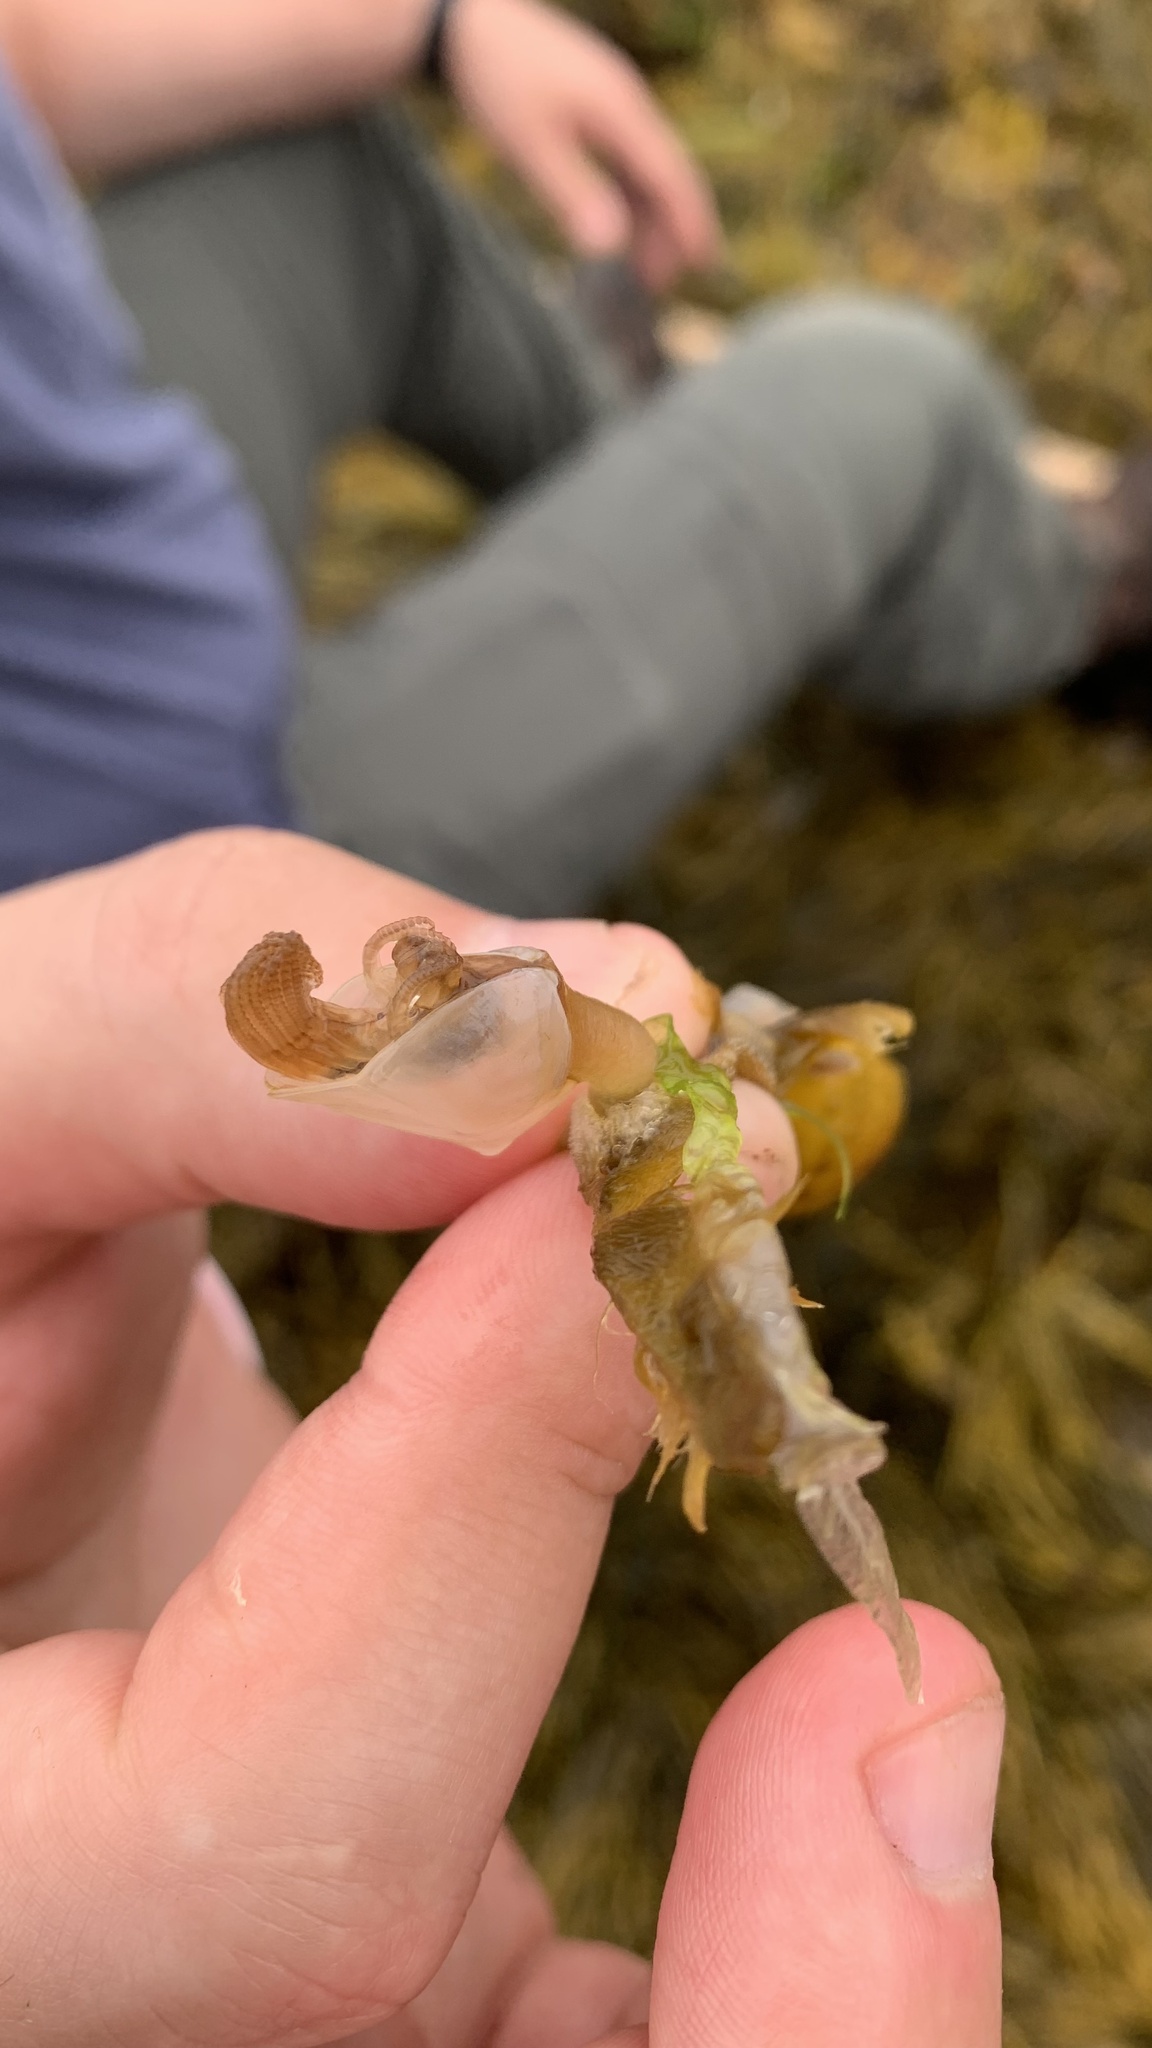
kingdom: Animalia
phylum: Arthropoda
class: Maxillopoda
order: Pedunculata
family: Lepadidae
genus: Dosima
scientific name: Dosima fascicularis
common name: Buoy barnacle
